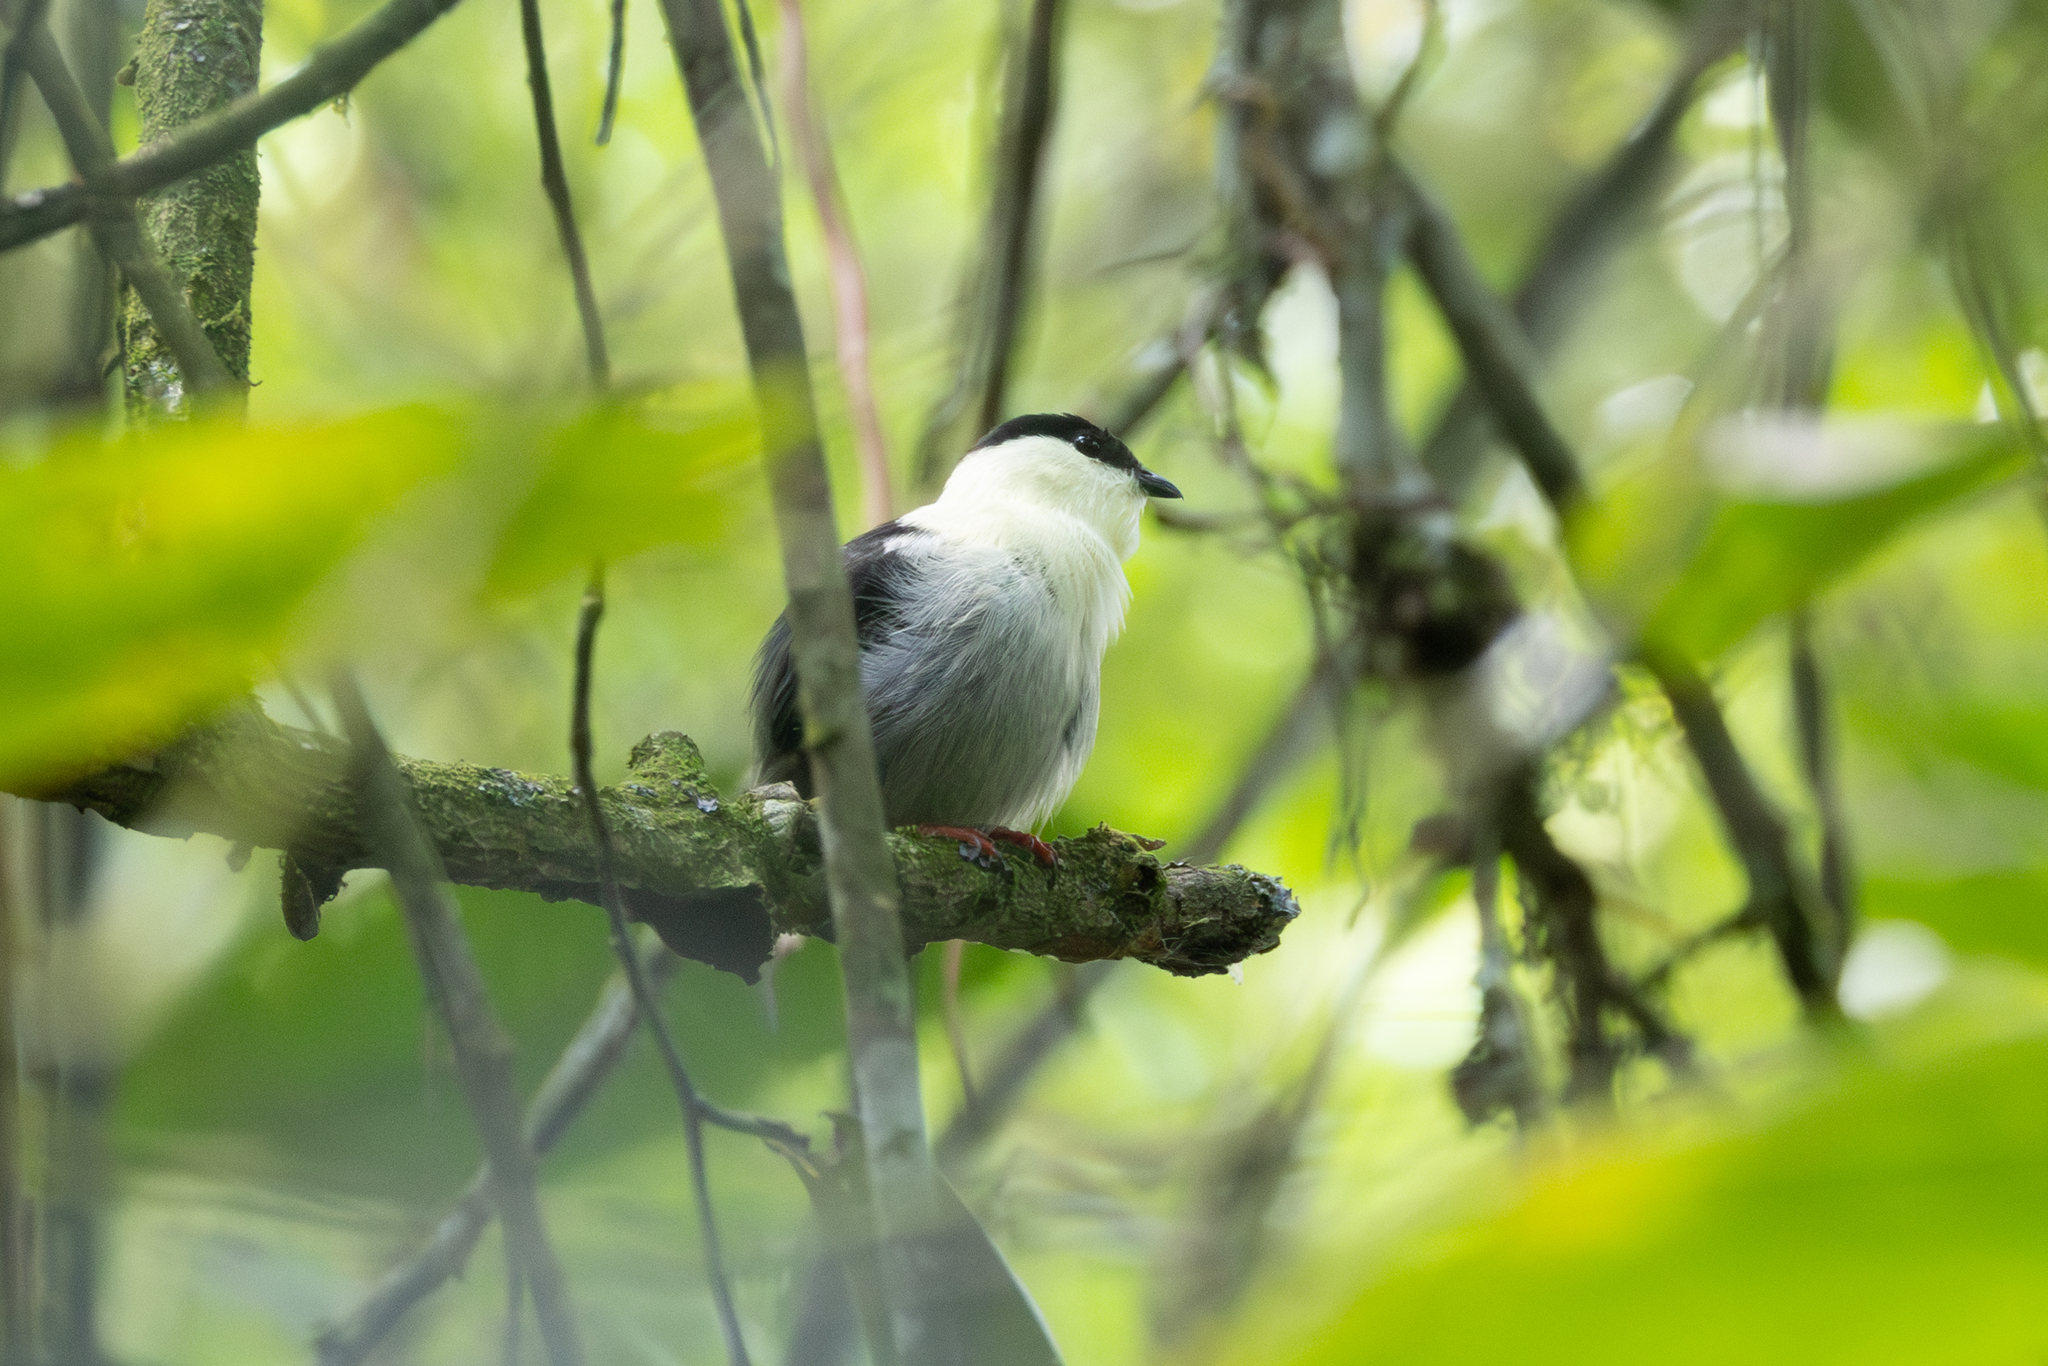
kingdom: Animalia
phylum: Chordata
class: Aves
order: Passeriformes
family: Pipridae
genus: Manacus
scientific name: Manacus manacus
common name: White-bearded manakin
